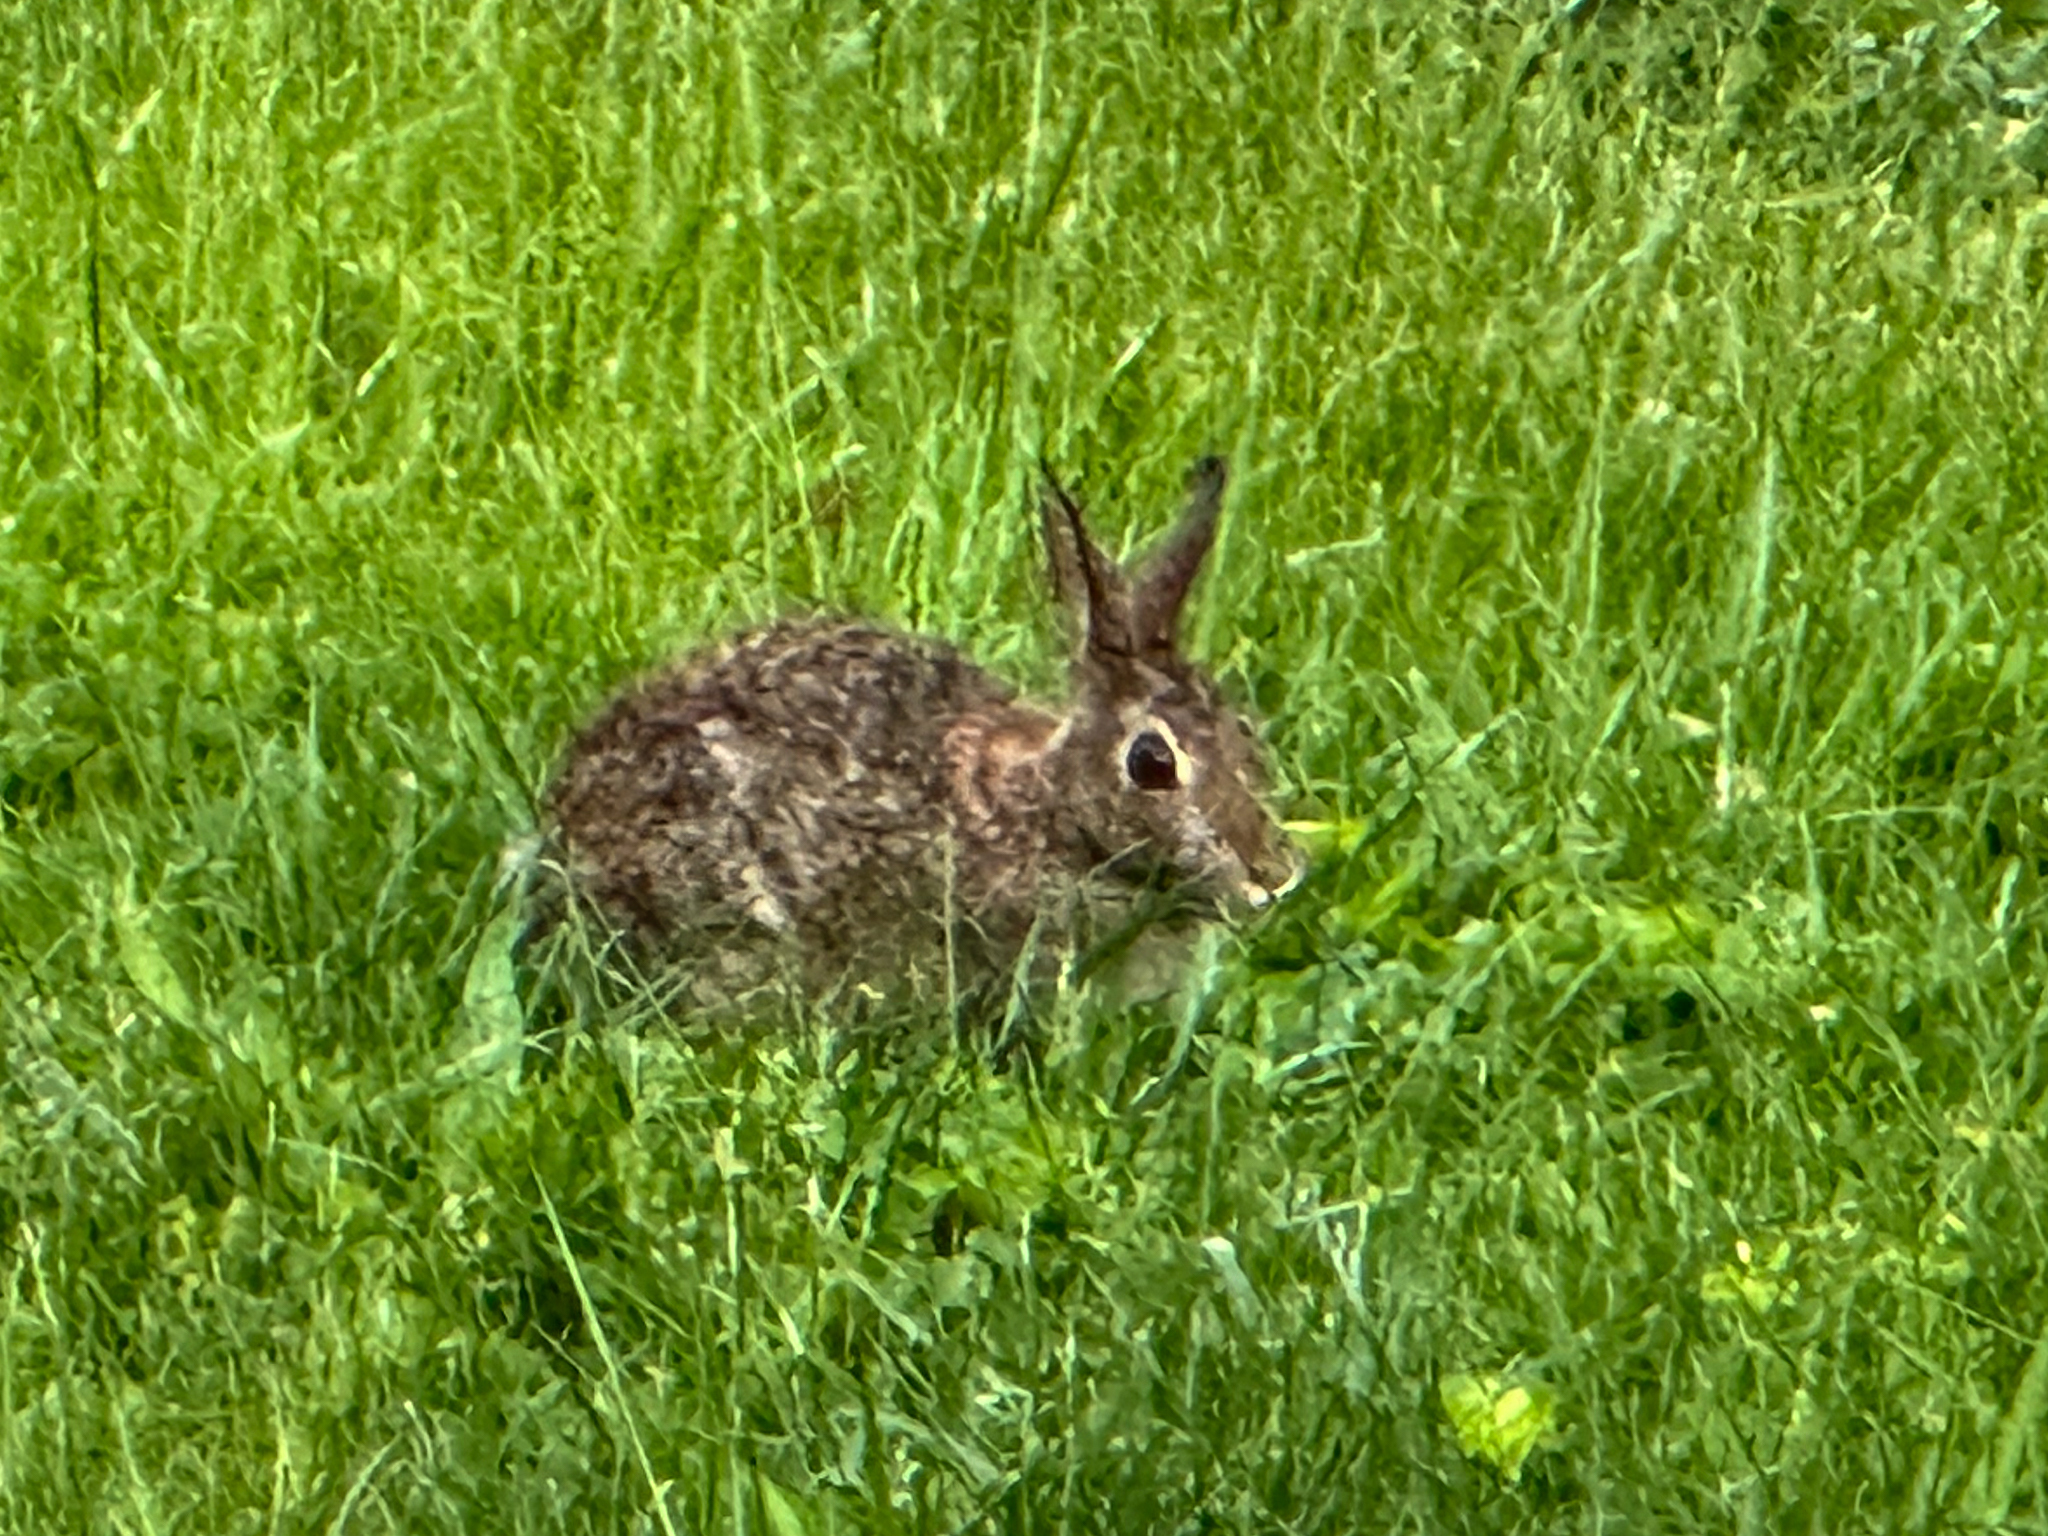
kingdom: Animalia
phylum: Chordata
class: Mammalia
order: Lagomorpha
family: Leporidae
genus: Sylvilagus
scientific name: Sylvilagus floridanus
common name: Eastern cottontail
